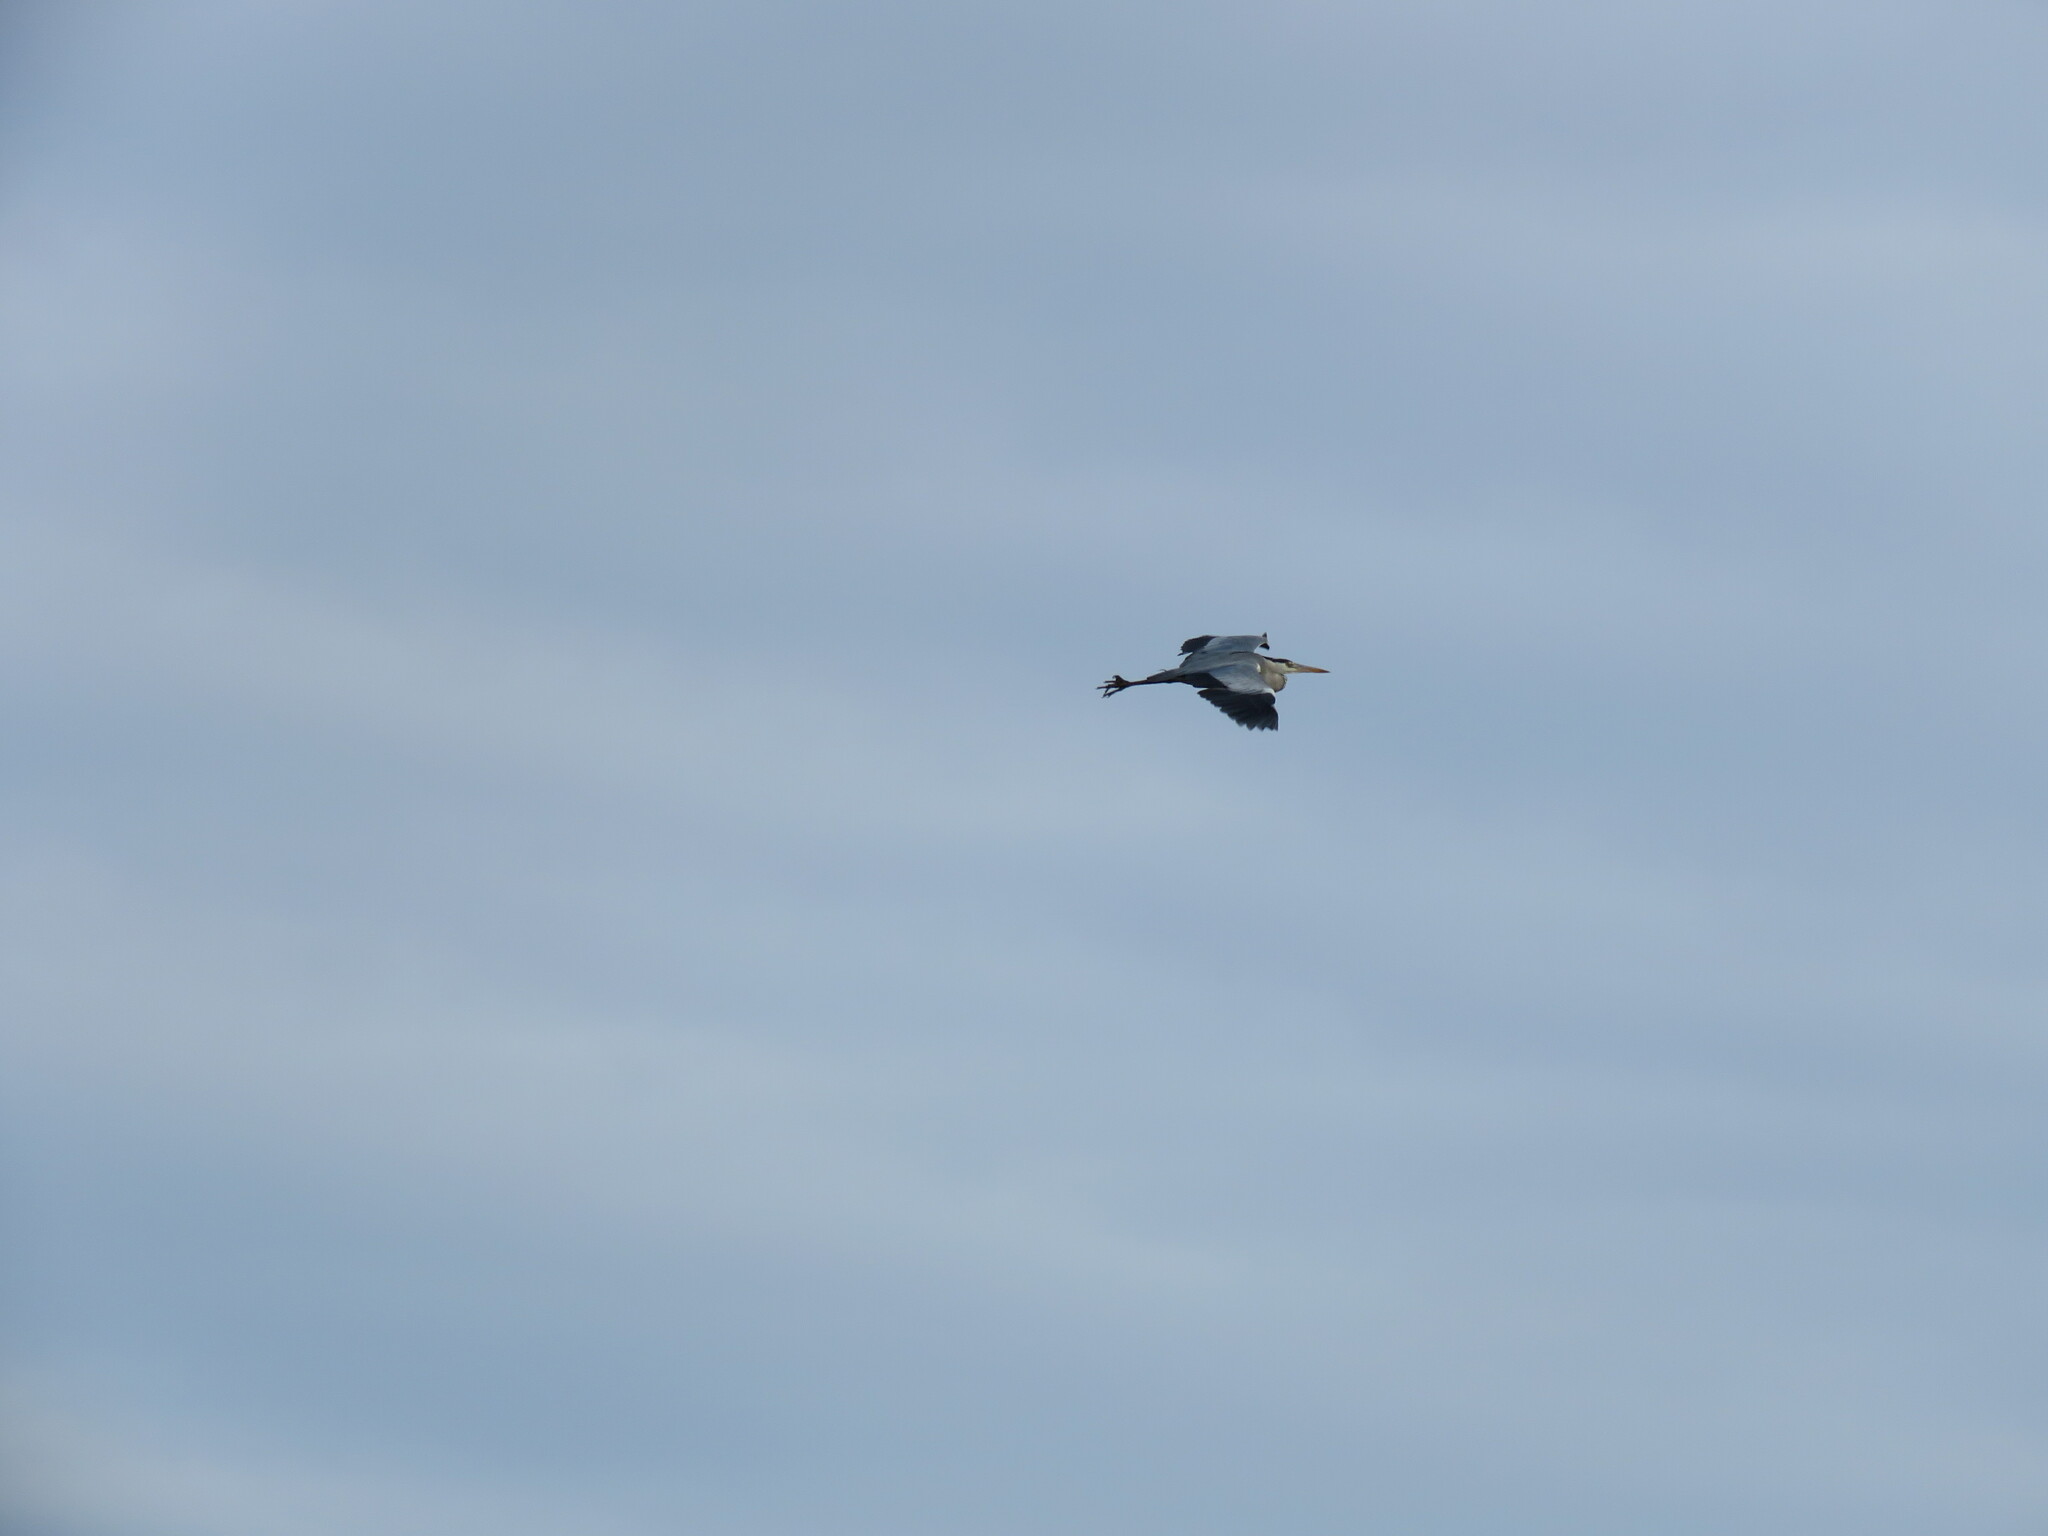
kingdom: Animalia
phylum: Chordata
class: Aves
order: Pelecaniformes
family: Ardeidae
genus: Ardea
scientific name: Ardea cinerea
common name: Grey heron
